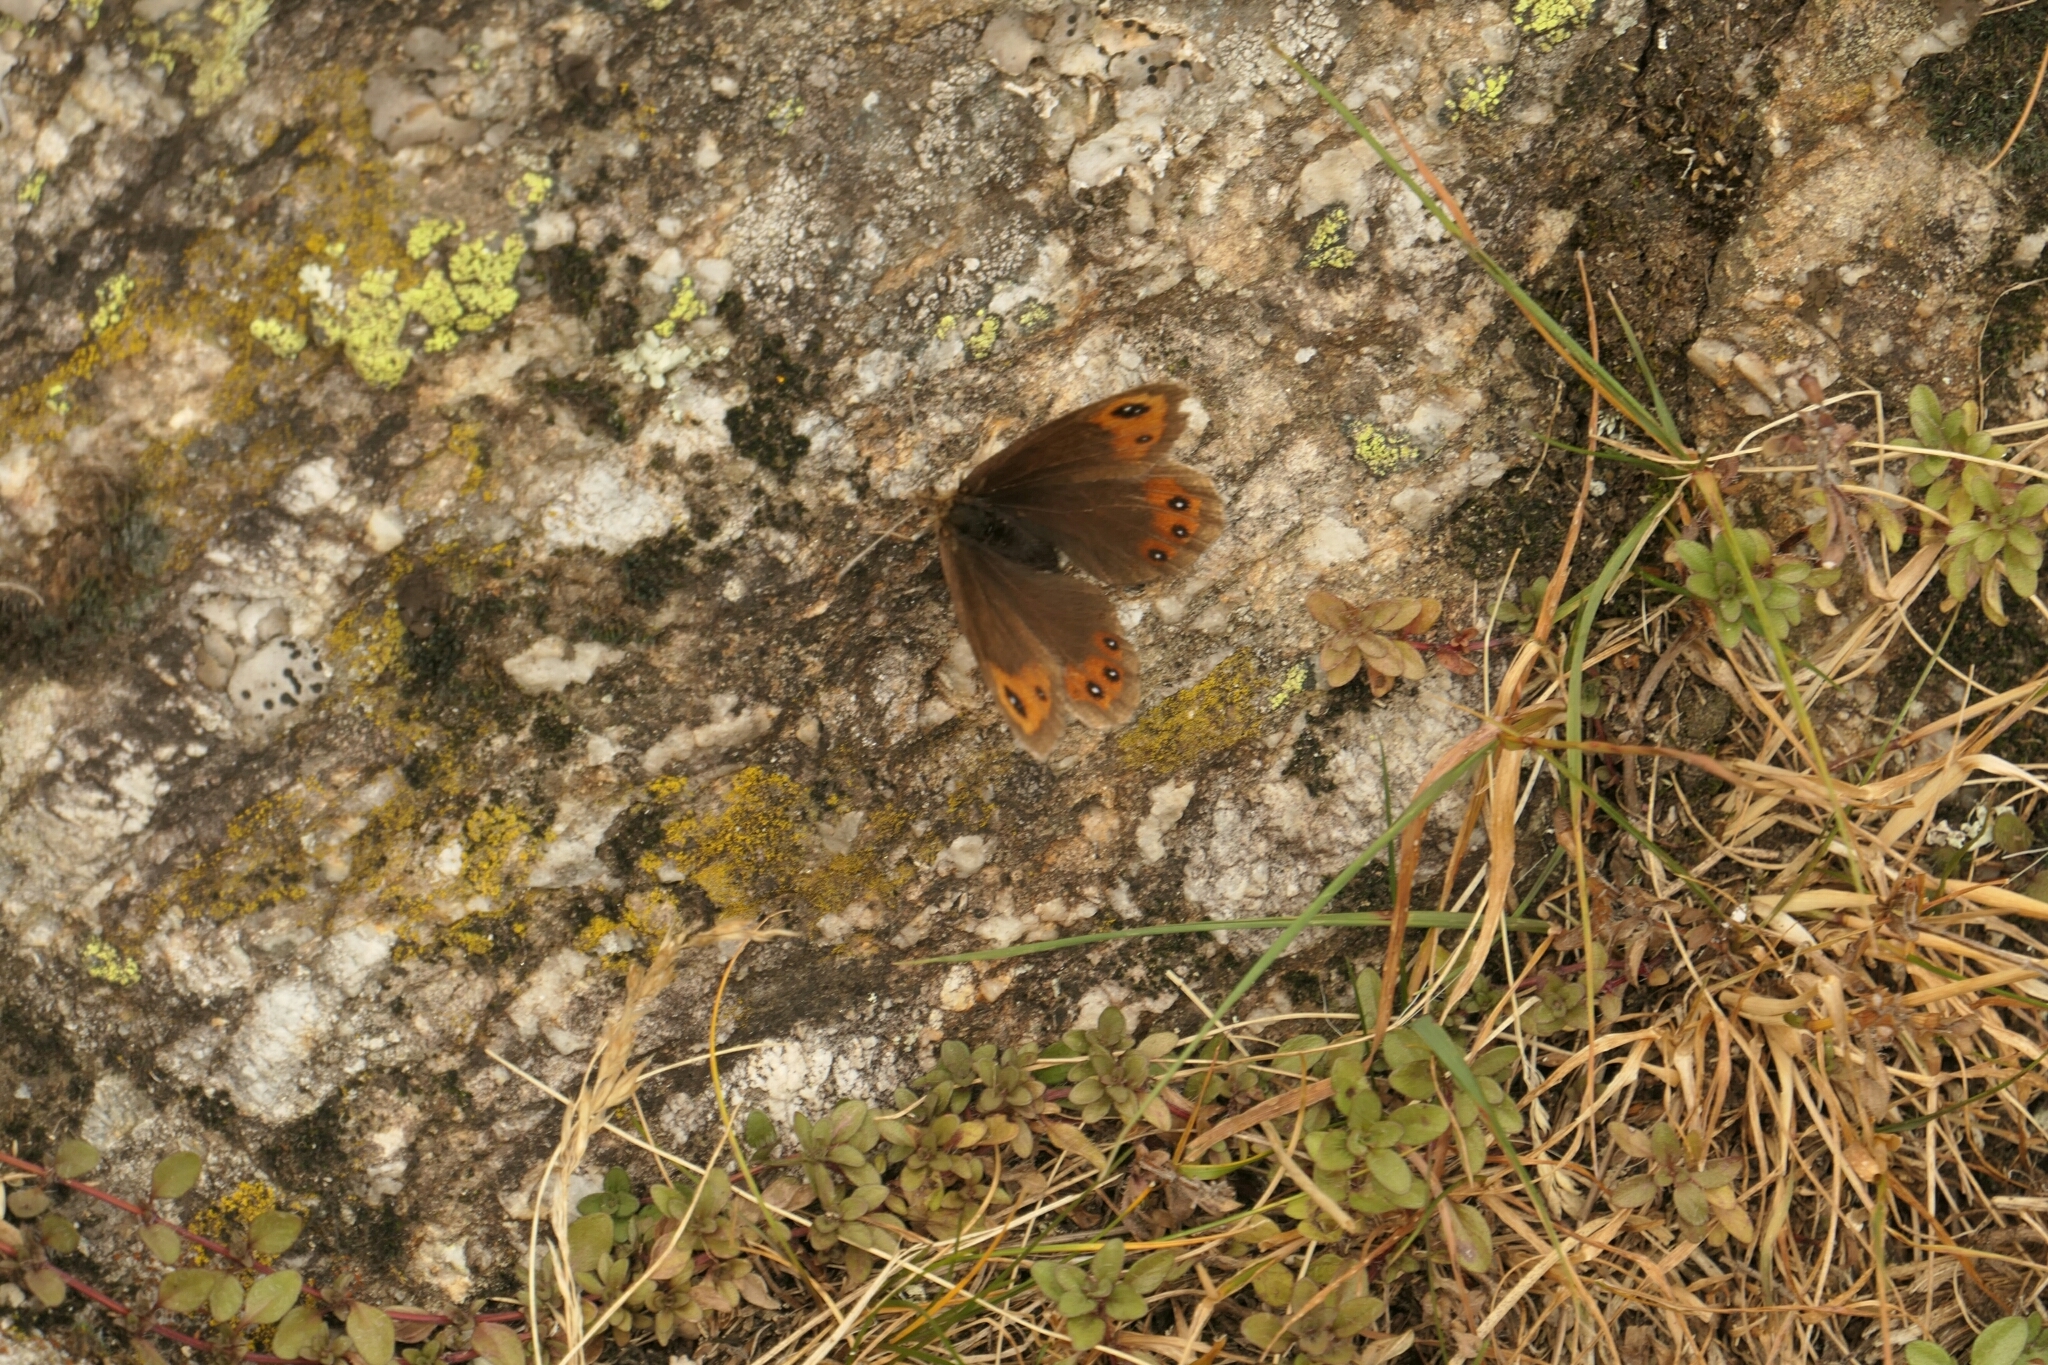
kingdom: Animalia
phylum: Arthropoda
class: Insecta
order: Lepidoptera
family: Nymphalidae
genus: Erebia
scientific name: Erebia montanus
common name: Marbled ringlet
